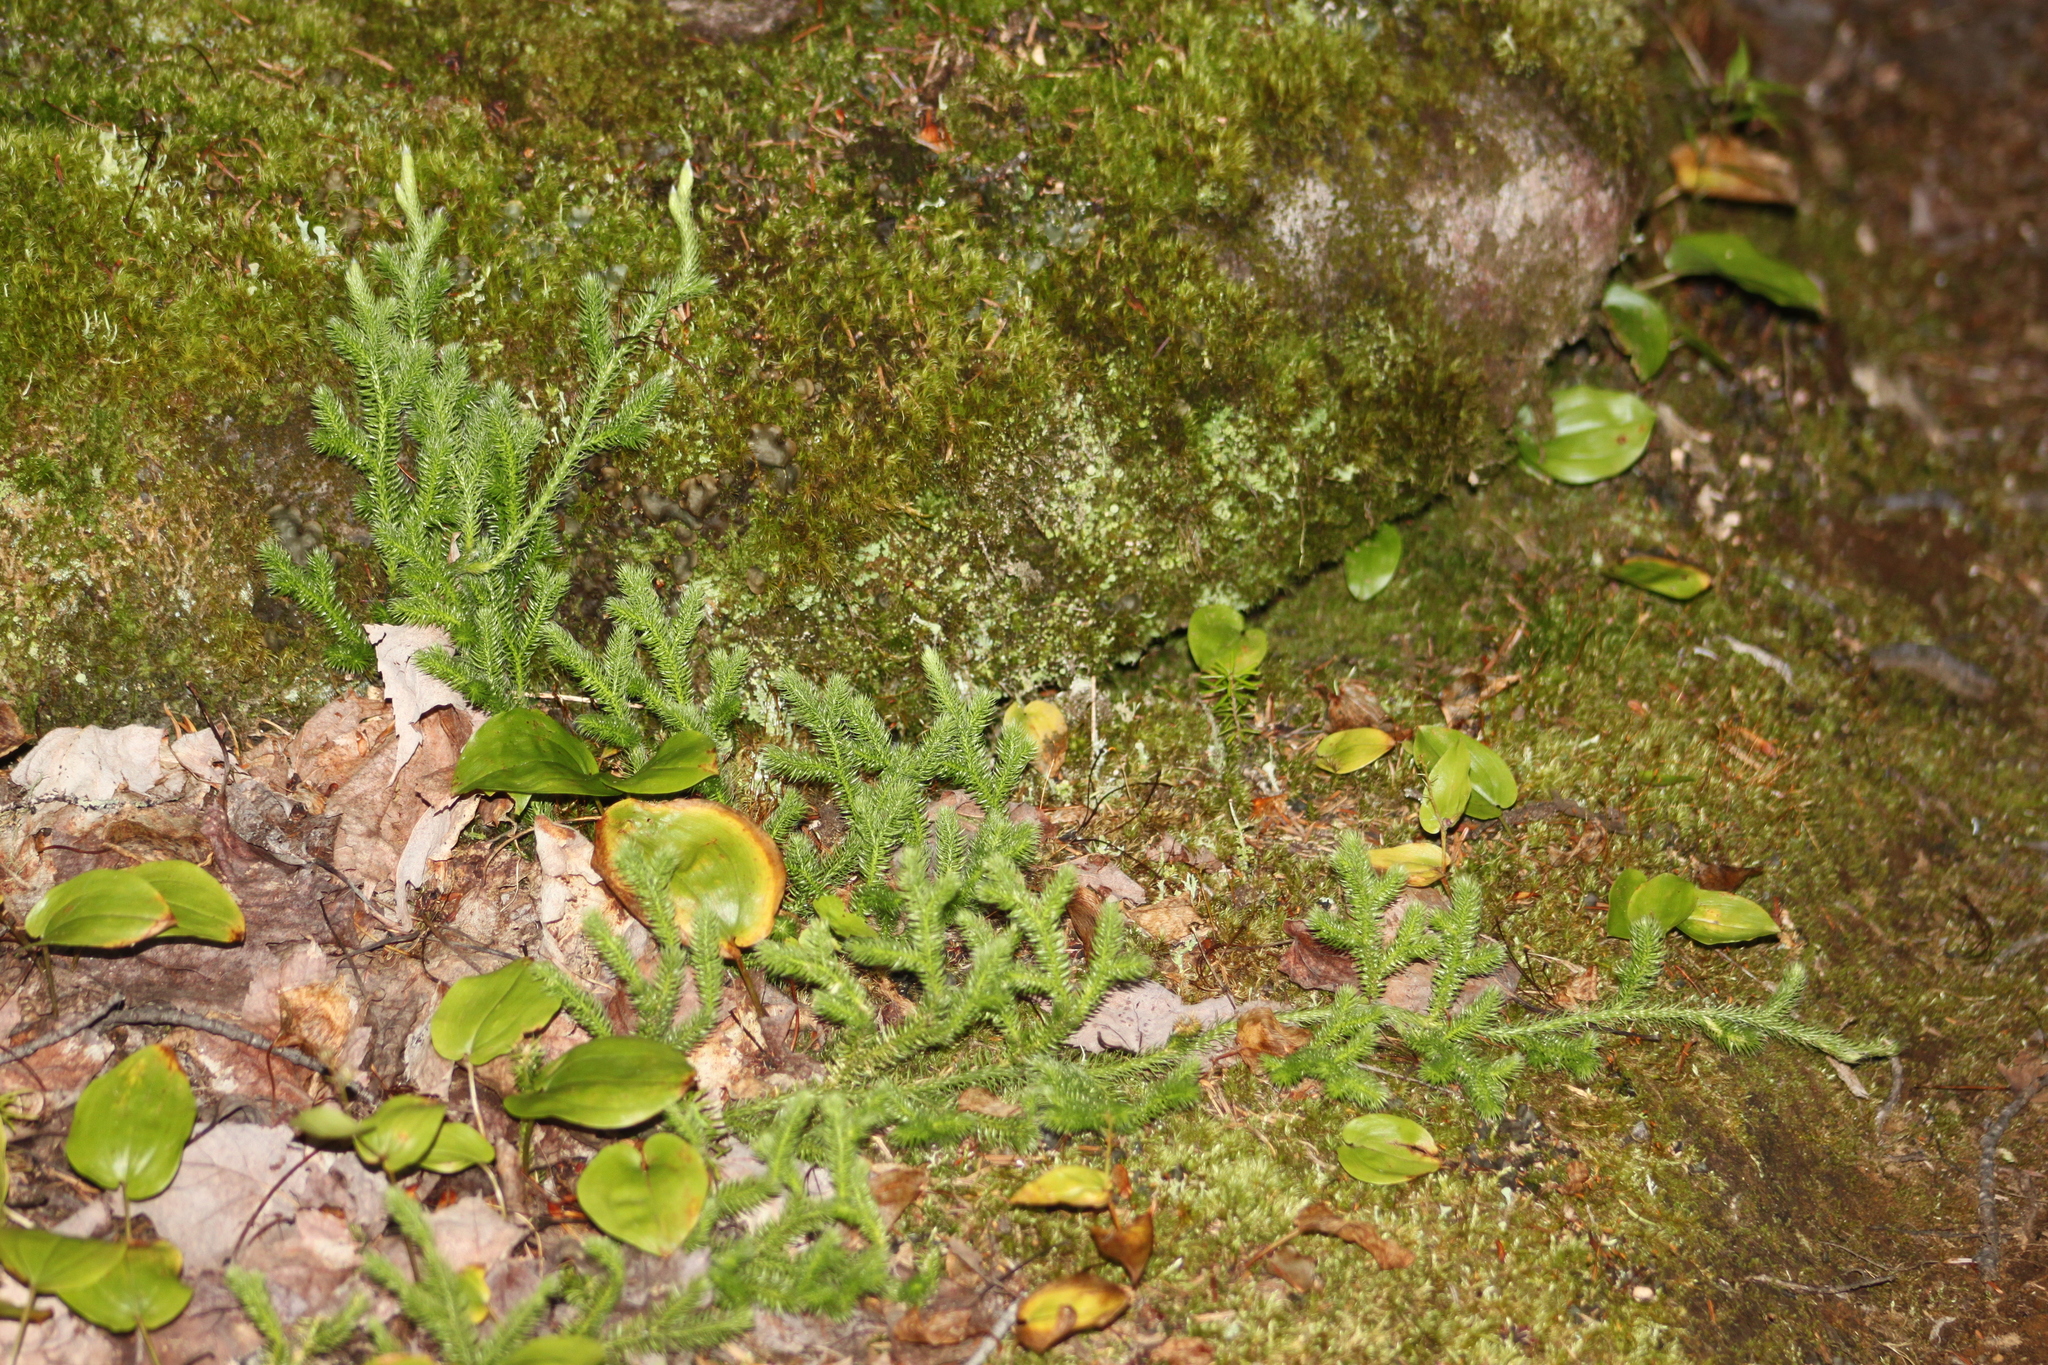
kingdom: Plantae
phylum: Tracheophyta
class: Lycopodiopsida
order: Lycopodiales
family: Lycopodiaceae
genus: Lycopodium
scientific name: Lycopodium clavatum
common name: Stag's-horn clubmoss
